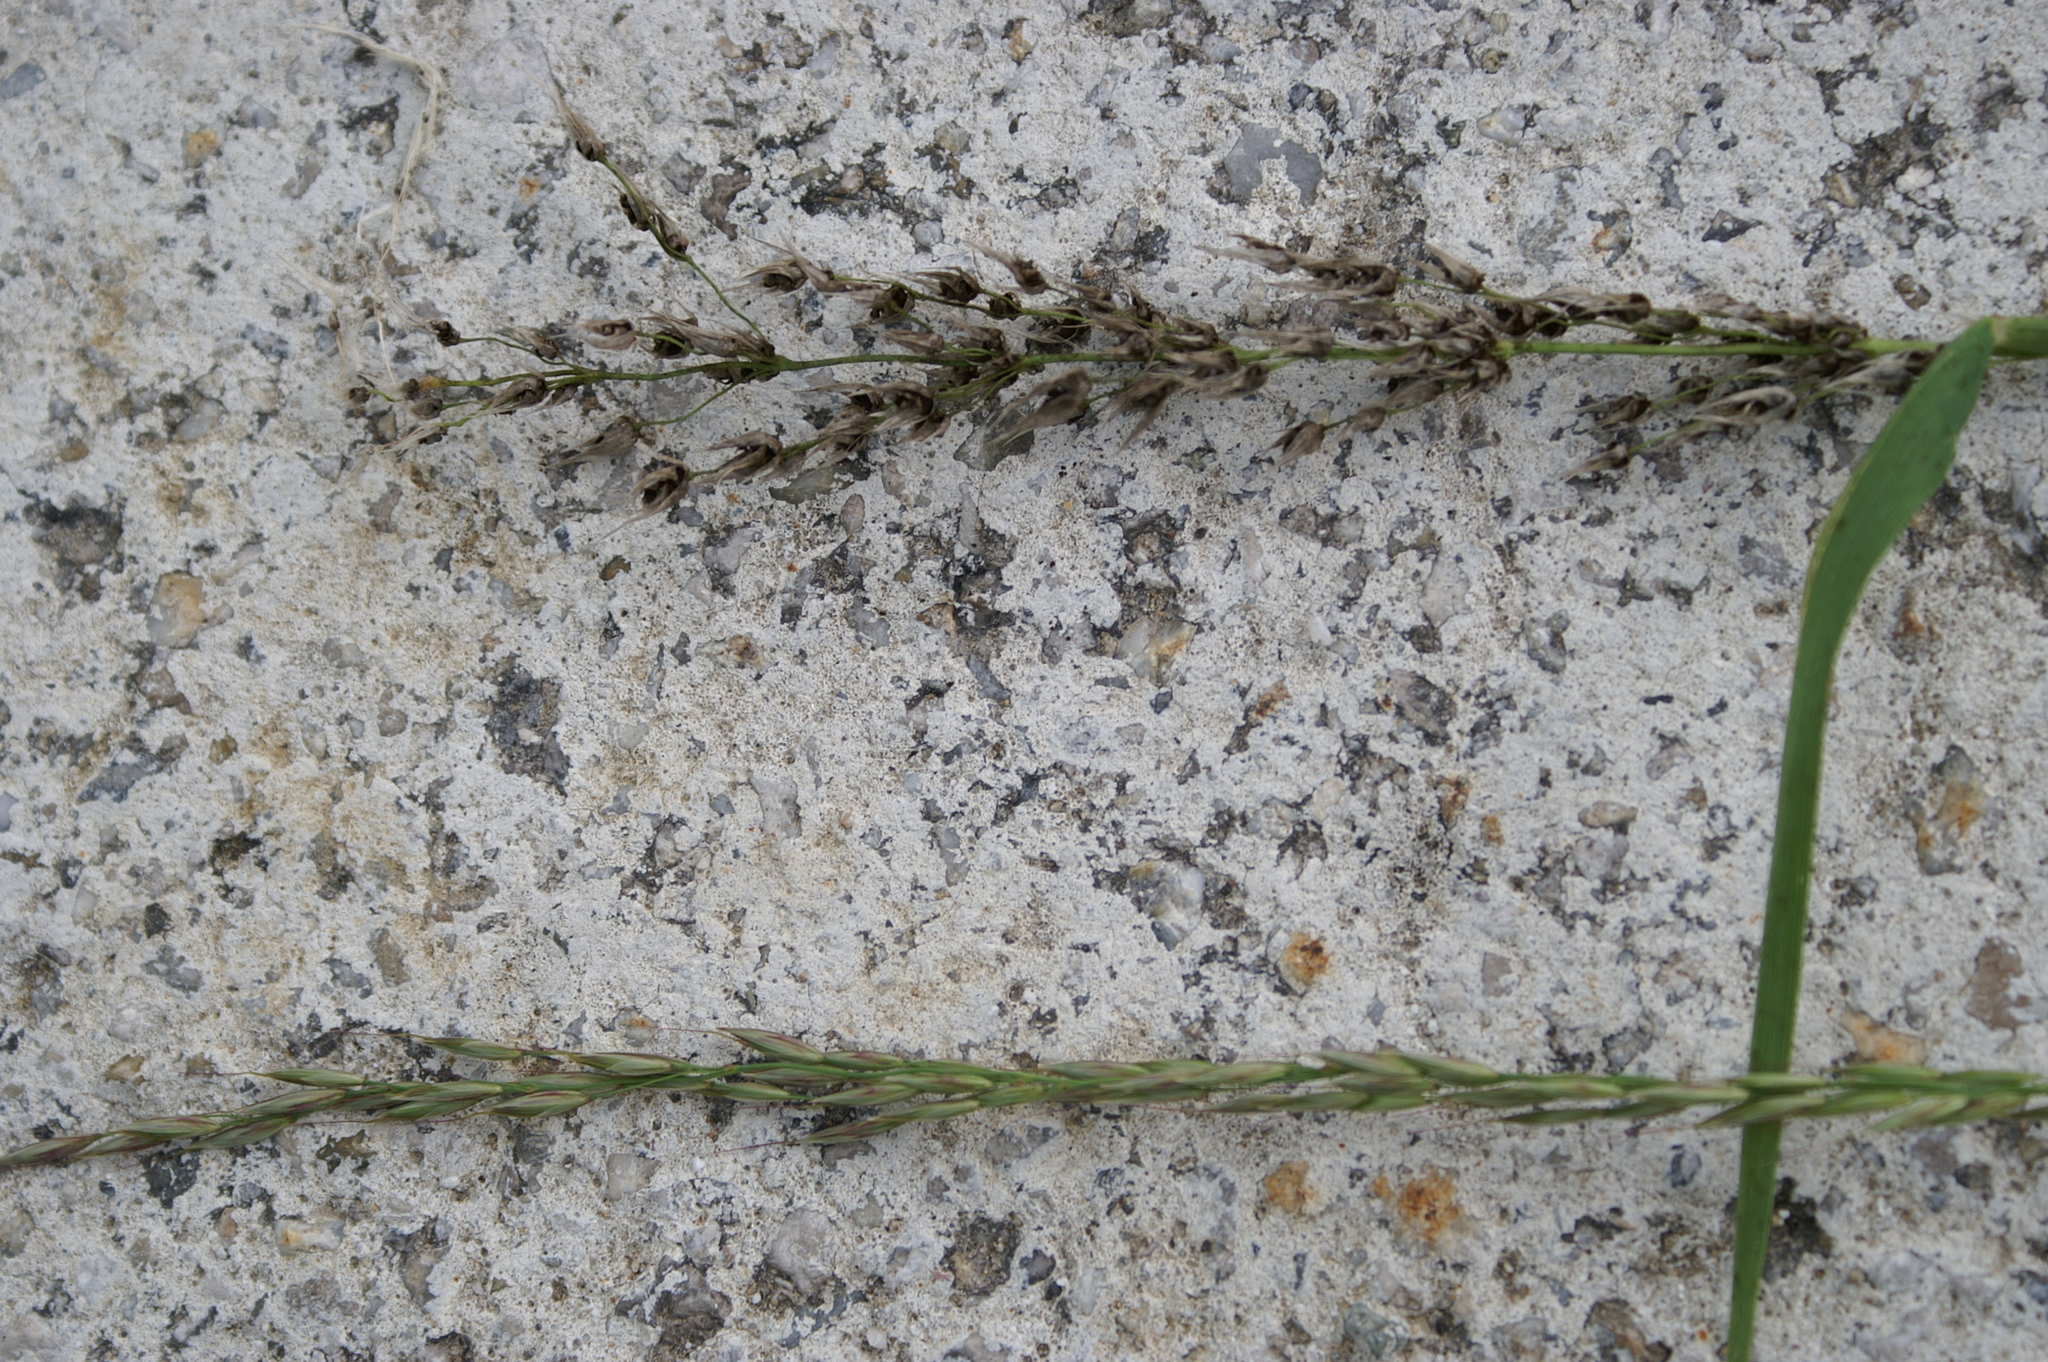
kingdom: Fungi
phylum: Basidiomycota
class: Ustilaginomycetes
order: Ustilaginales
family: Ustilaginaceae
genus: Ustilago
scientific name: Ustilago avenae
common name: Loose smut of oats & oat grass
